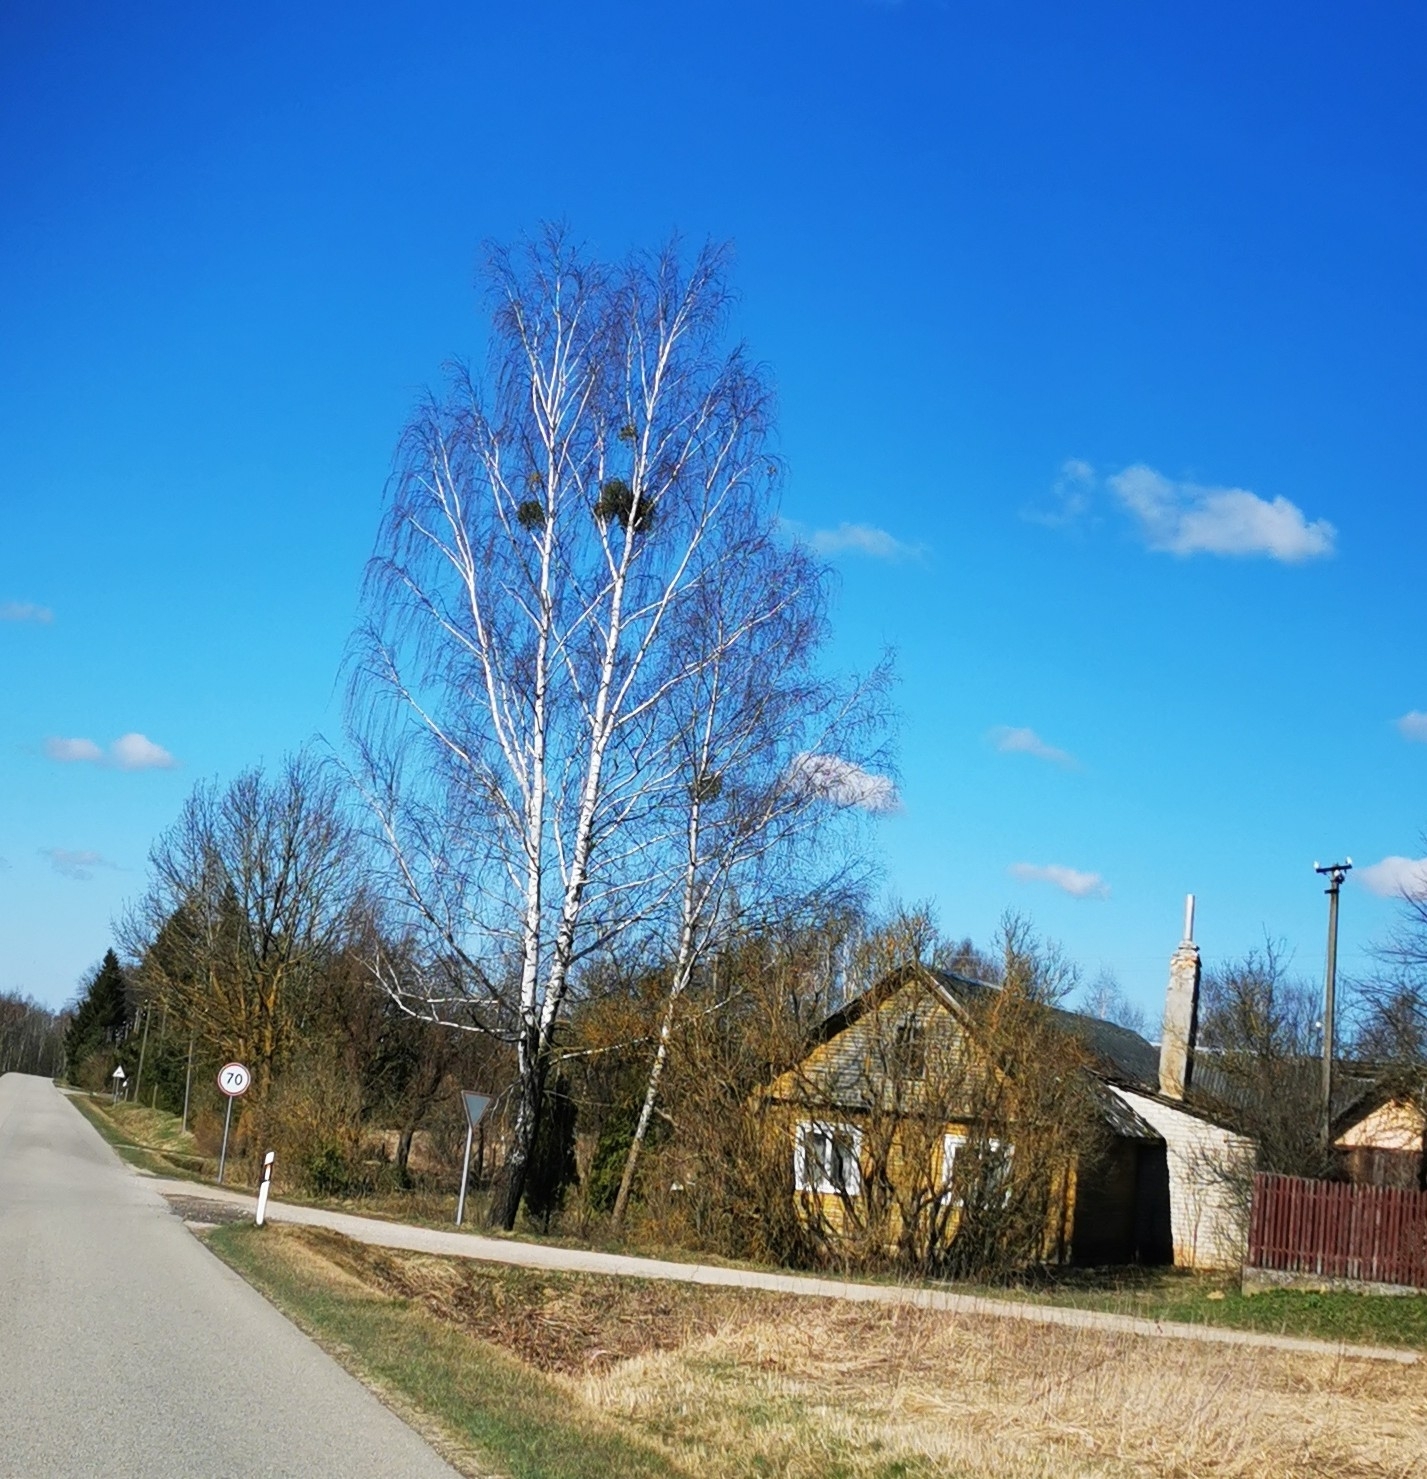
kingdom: Plantae
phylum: Tracheophyta
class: Magnoliopsida
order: Santalales
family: Viscaceae
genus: Viscum
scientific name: Viscum album
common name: Mistletoe
